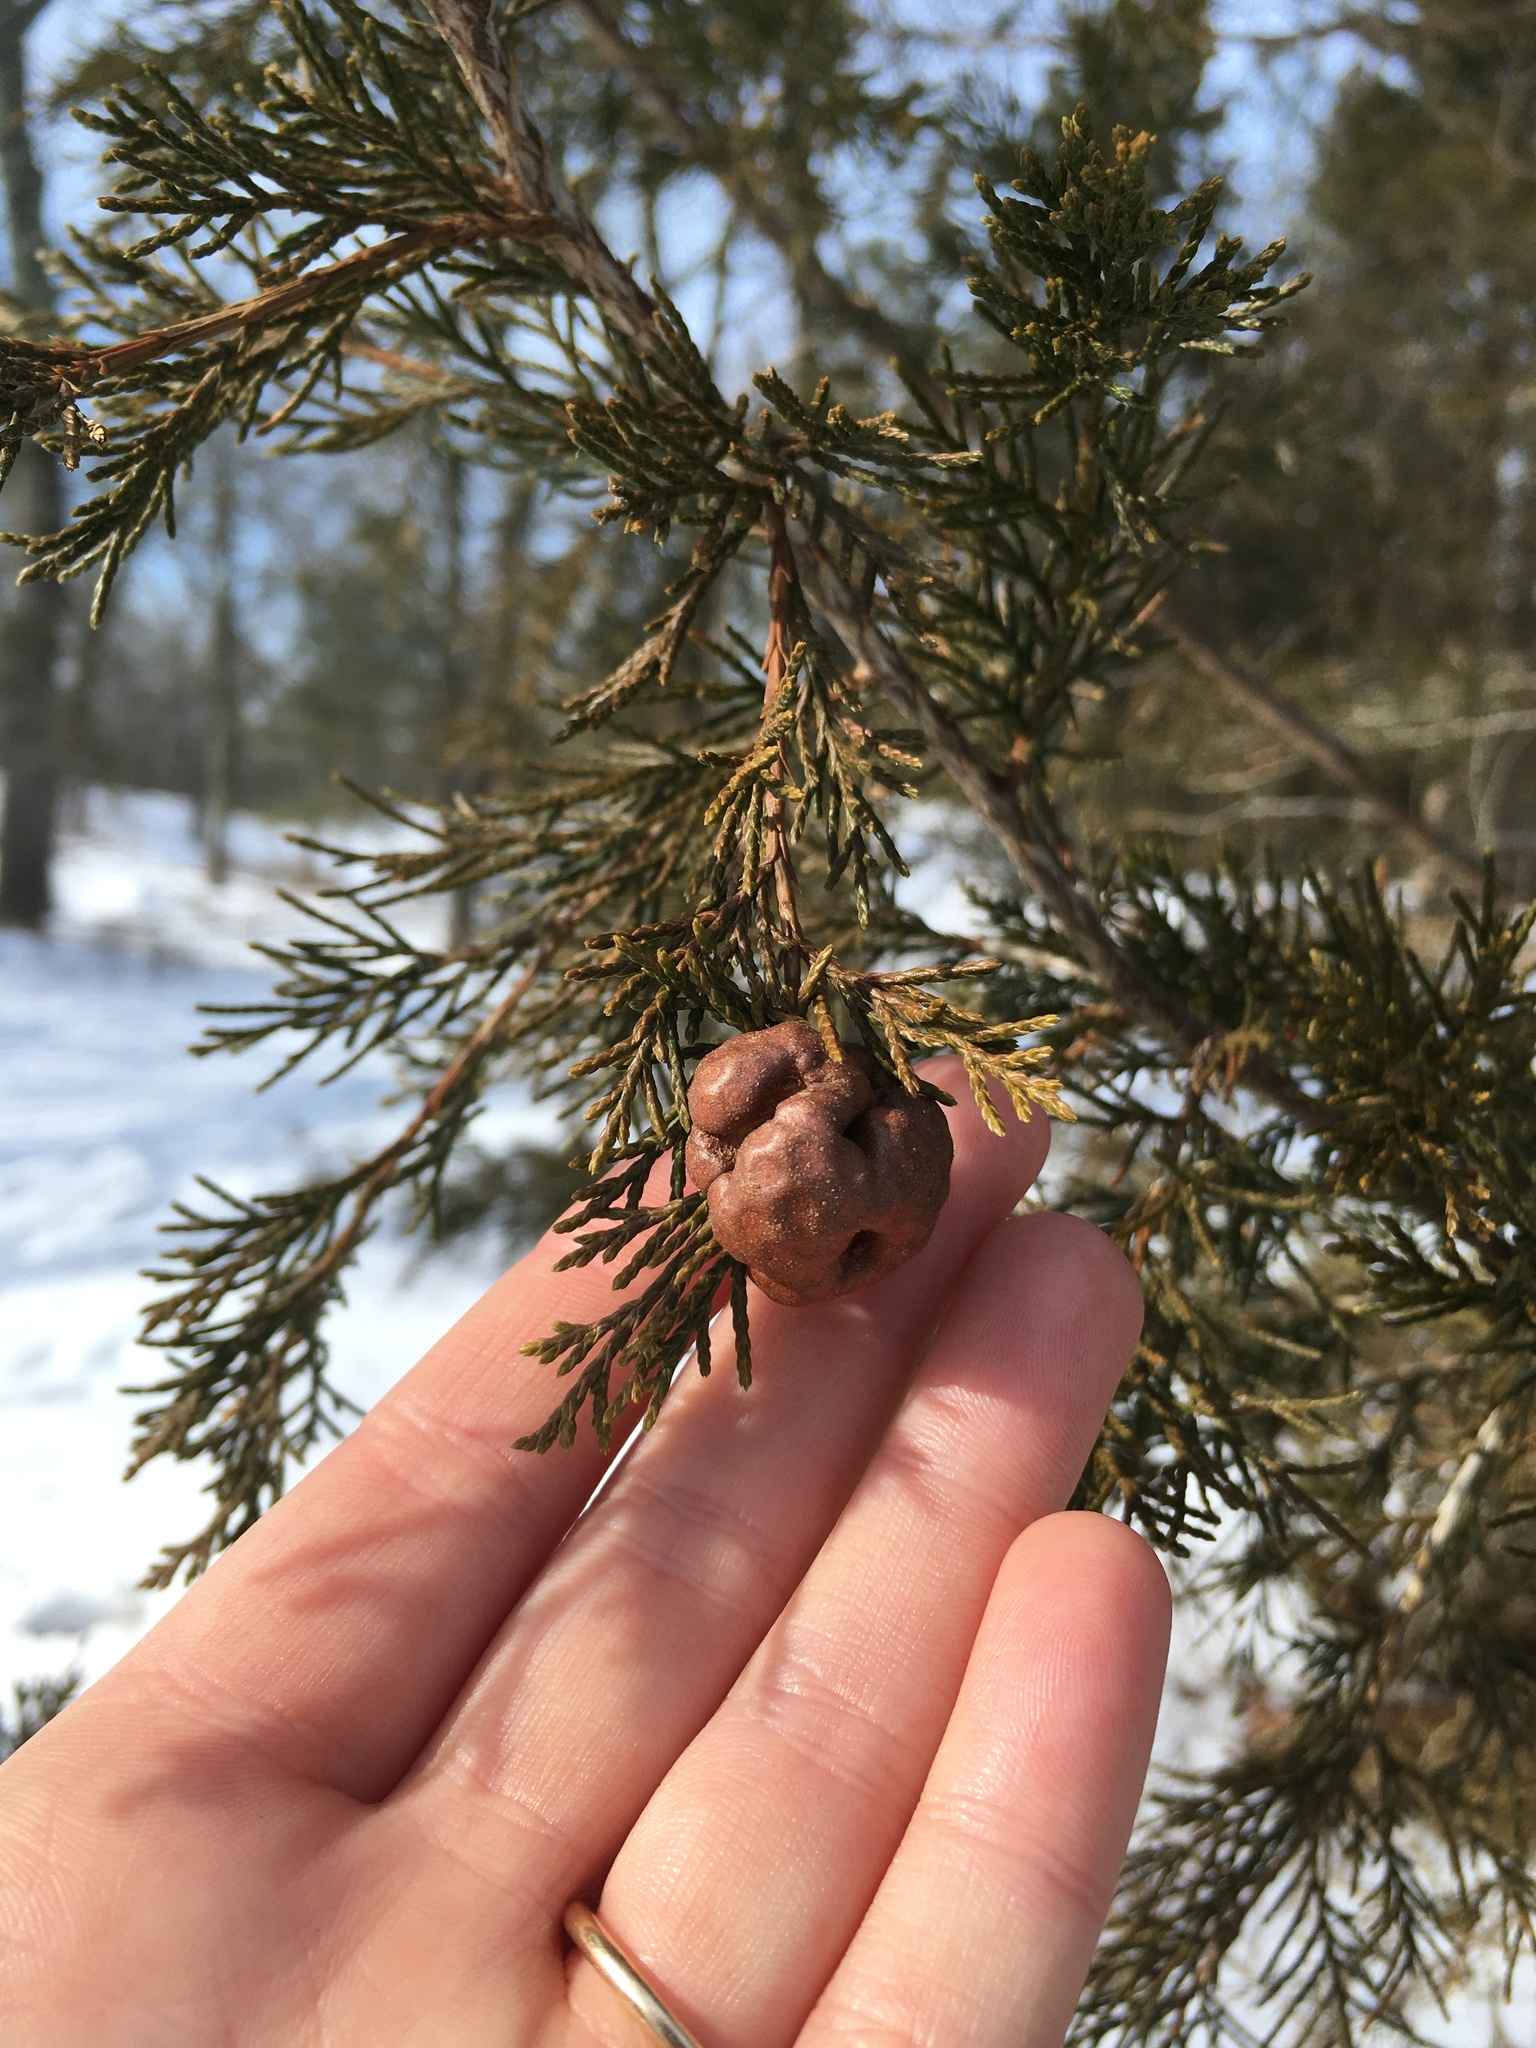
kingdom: Fungi
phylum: Basidiomycota
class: Pucciniomycetes
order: Pucciniales
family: Gymnosporangiaceae
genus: Gymnosporangium
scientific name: Gymnosporangium juniperi-virginianae
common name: Juniper-apple rust
